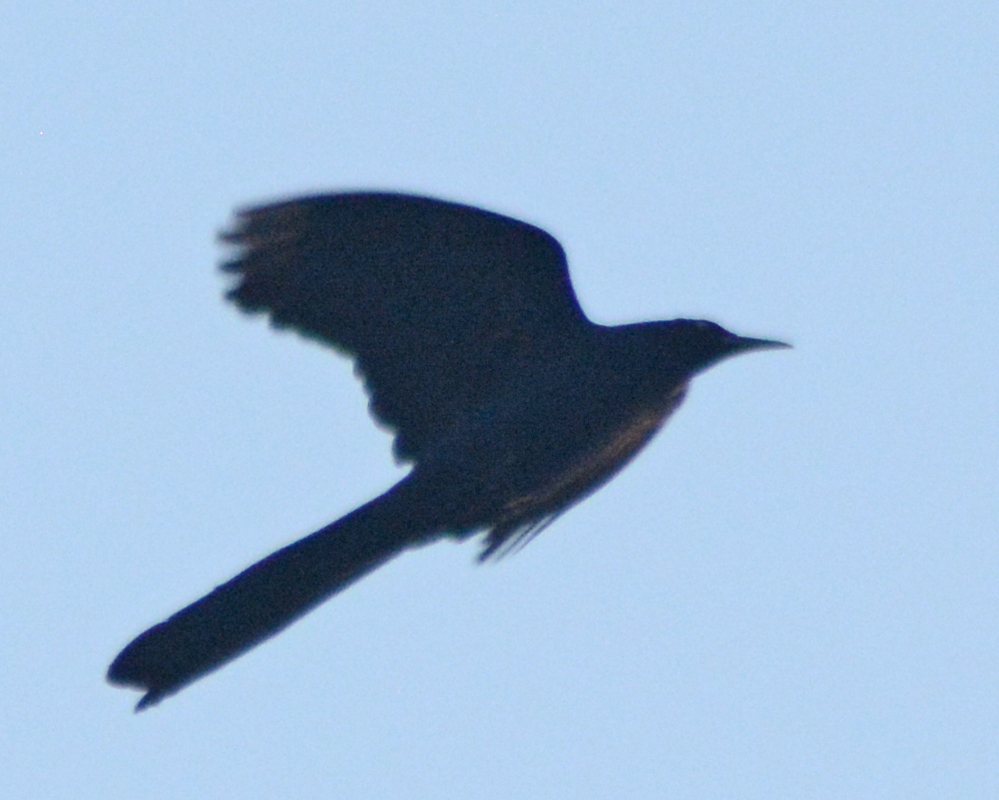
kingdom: Animalia
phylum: Chordata
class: Aves
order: Passeriformes
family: Icteridae
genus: Quiscalus
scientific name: Quiscalus mexicanus
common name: Great-tailed grackle
